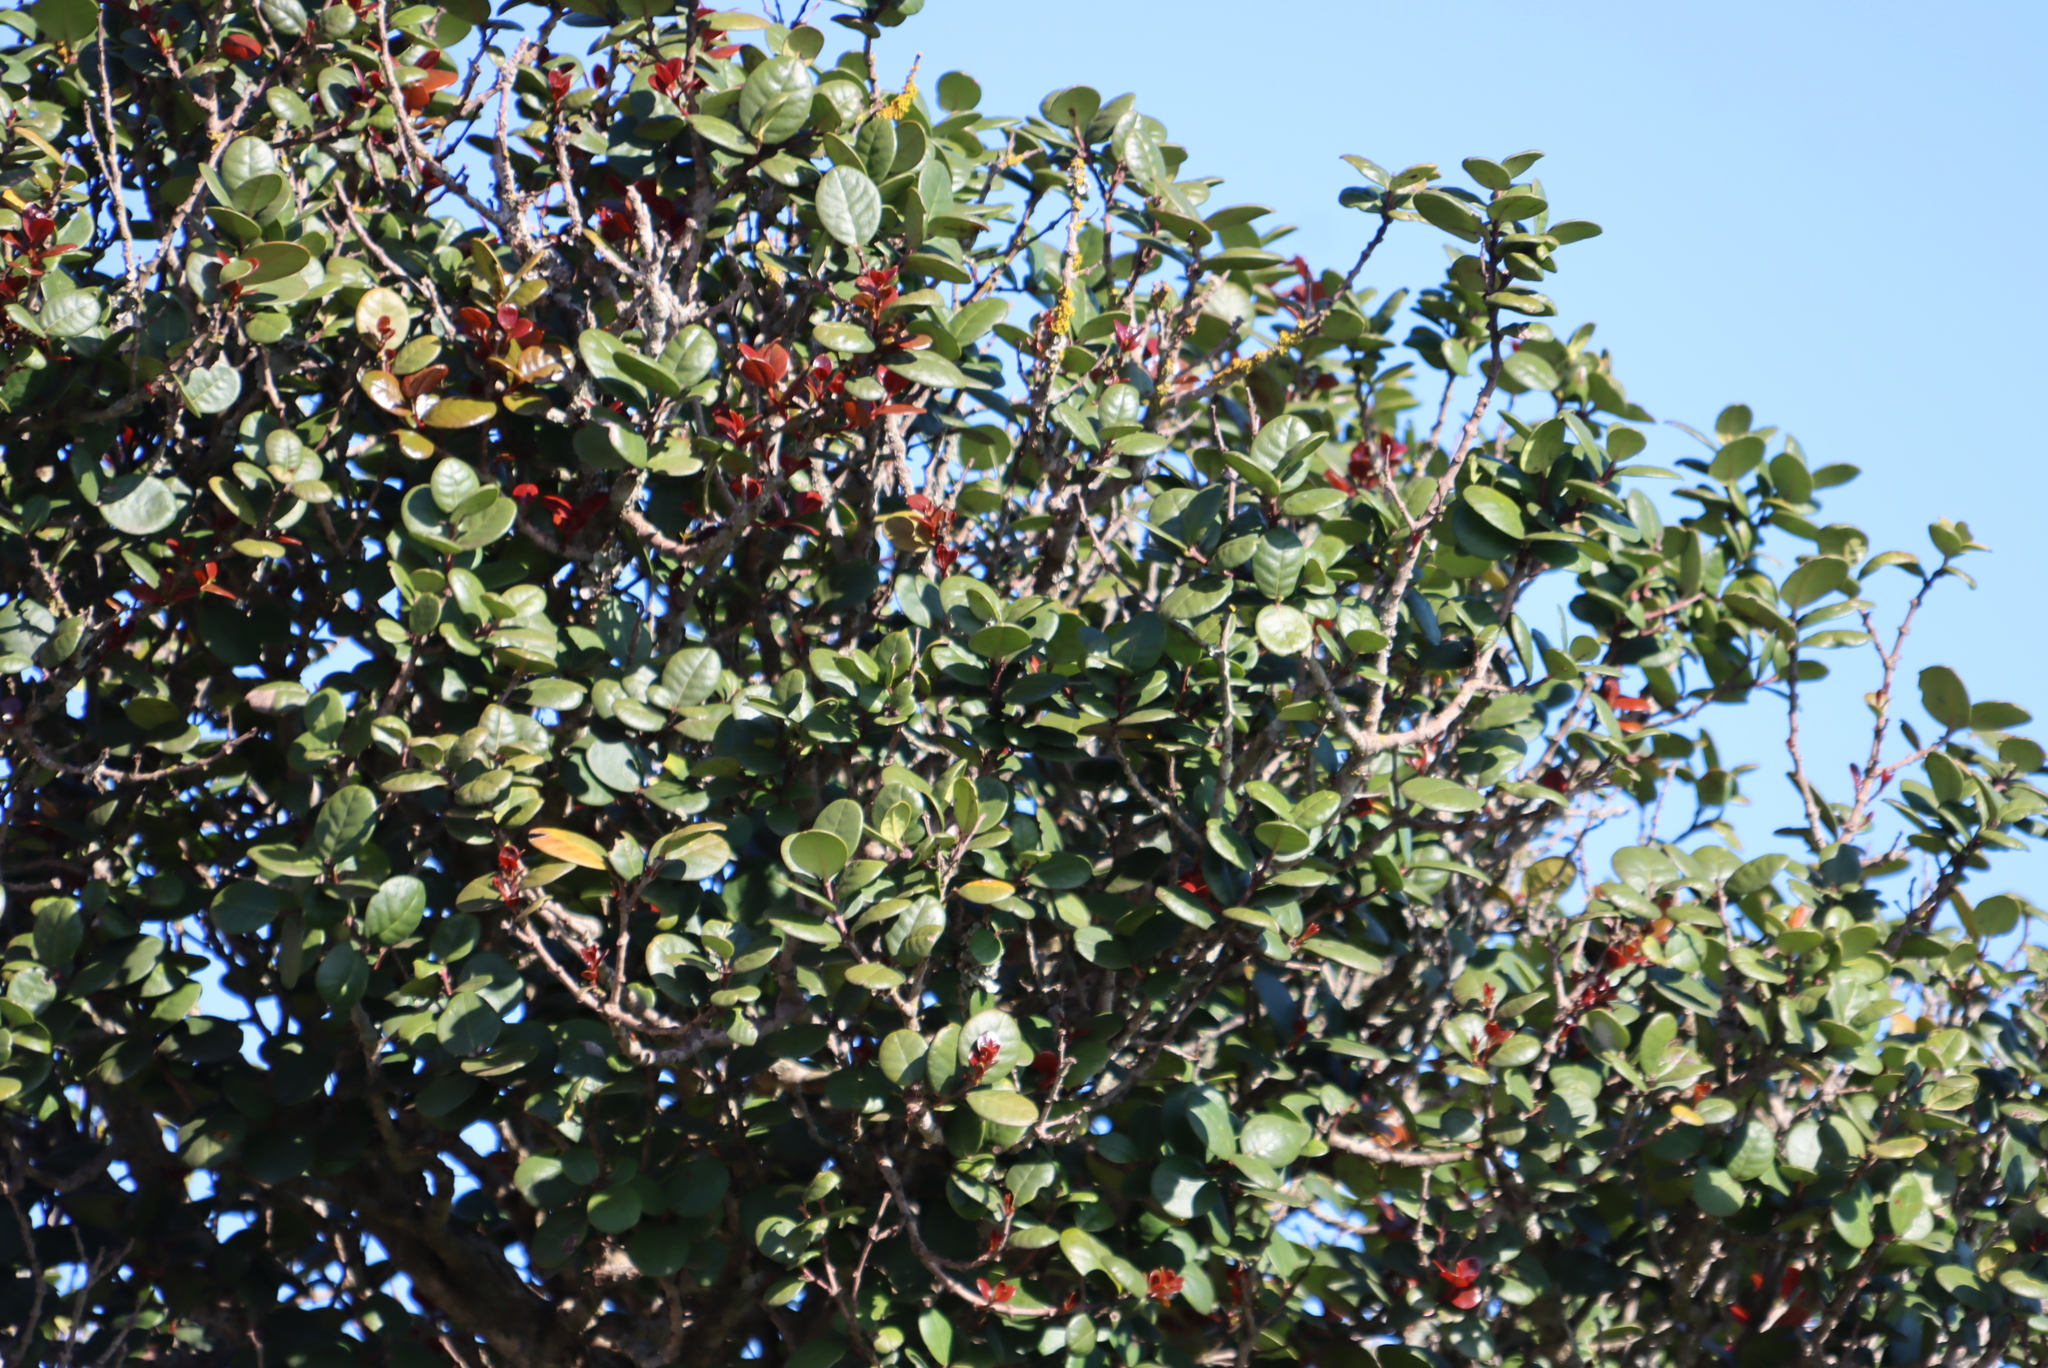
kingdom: Plantae
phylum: Tracheophyta
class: Magnoliopsida
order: Celastrales
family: Celastraceae
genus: Maurocenia
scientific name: Maurocenia frangula
